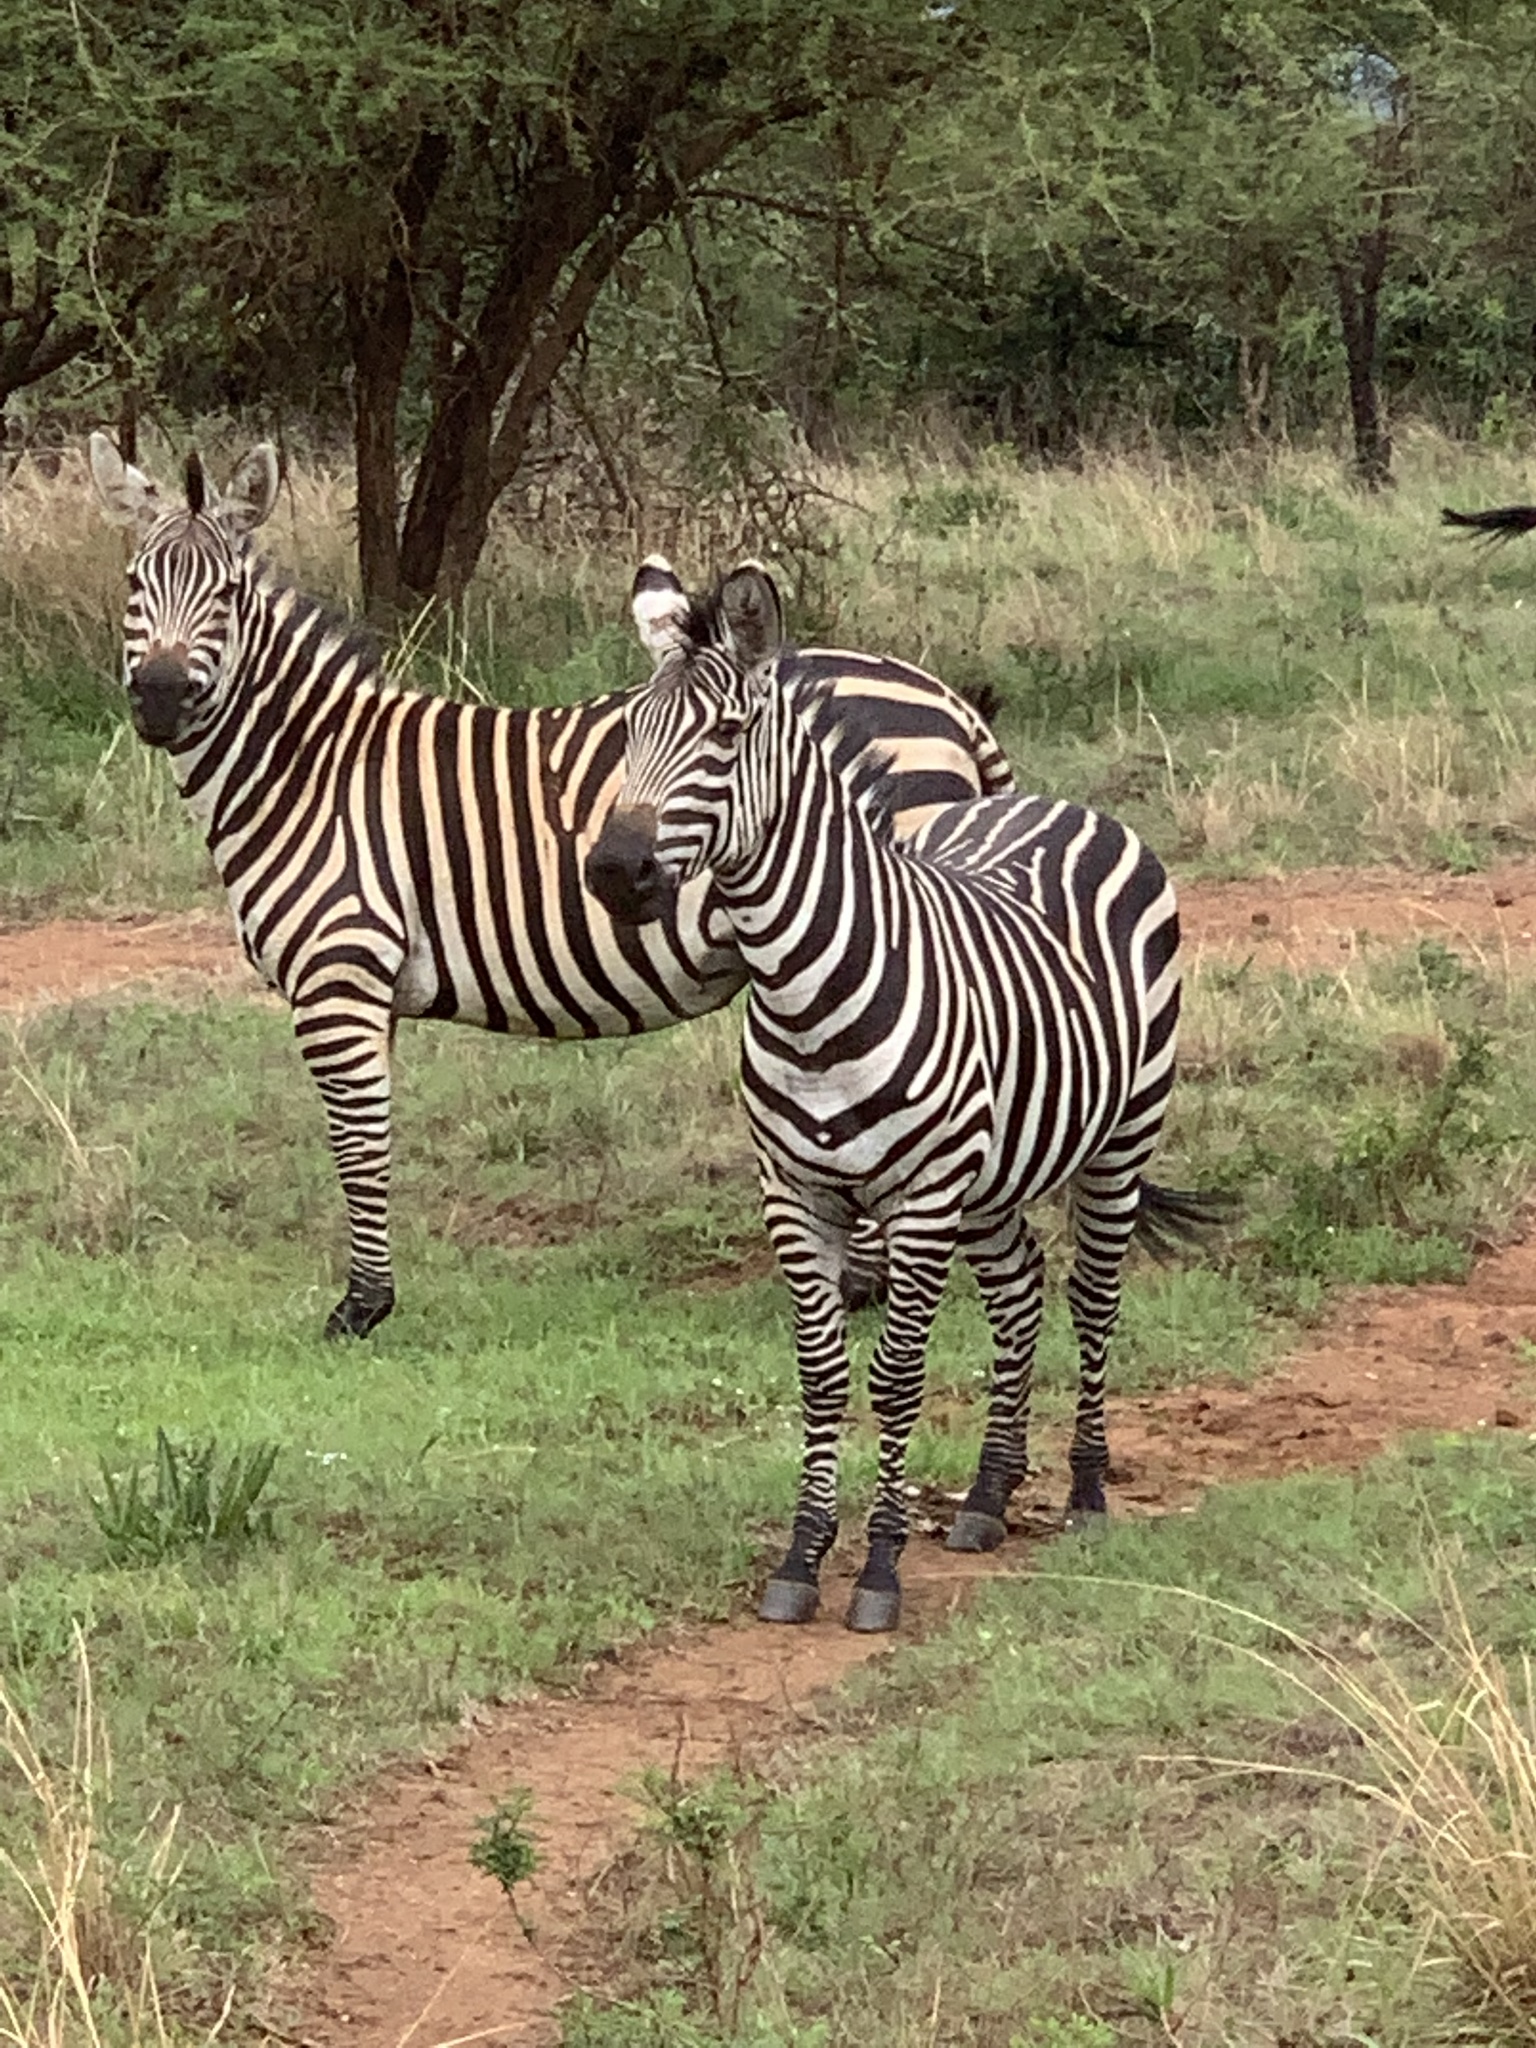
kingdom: Animalia
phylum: Chordata
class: Mammalia
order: Perissodactyla
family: Equidae
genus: Equus
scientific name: Equus quagga
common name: Plains zebra
